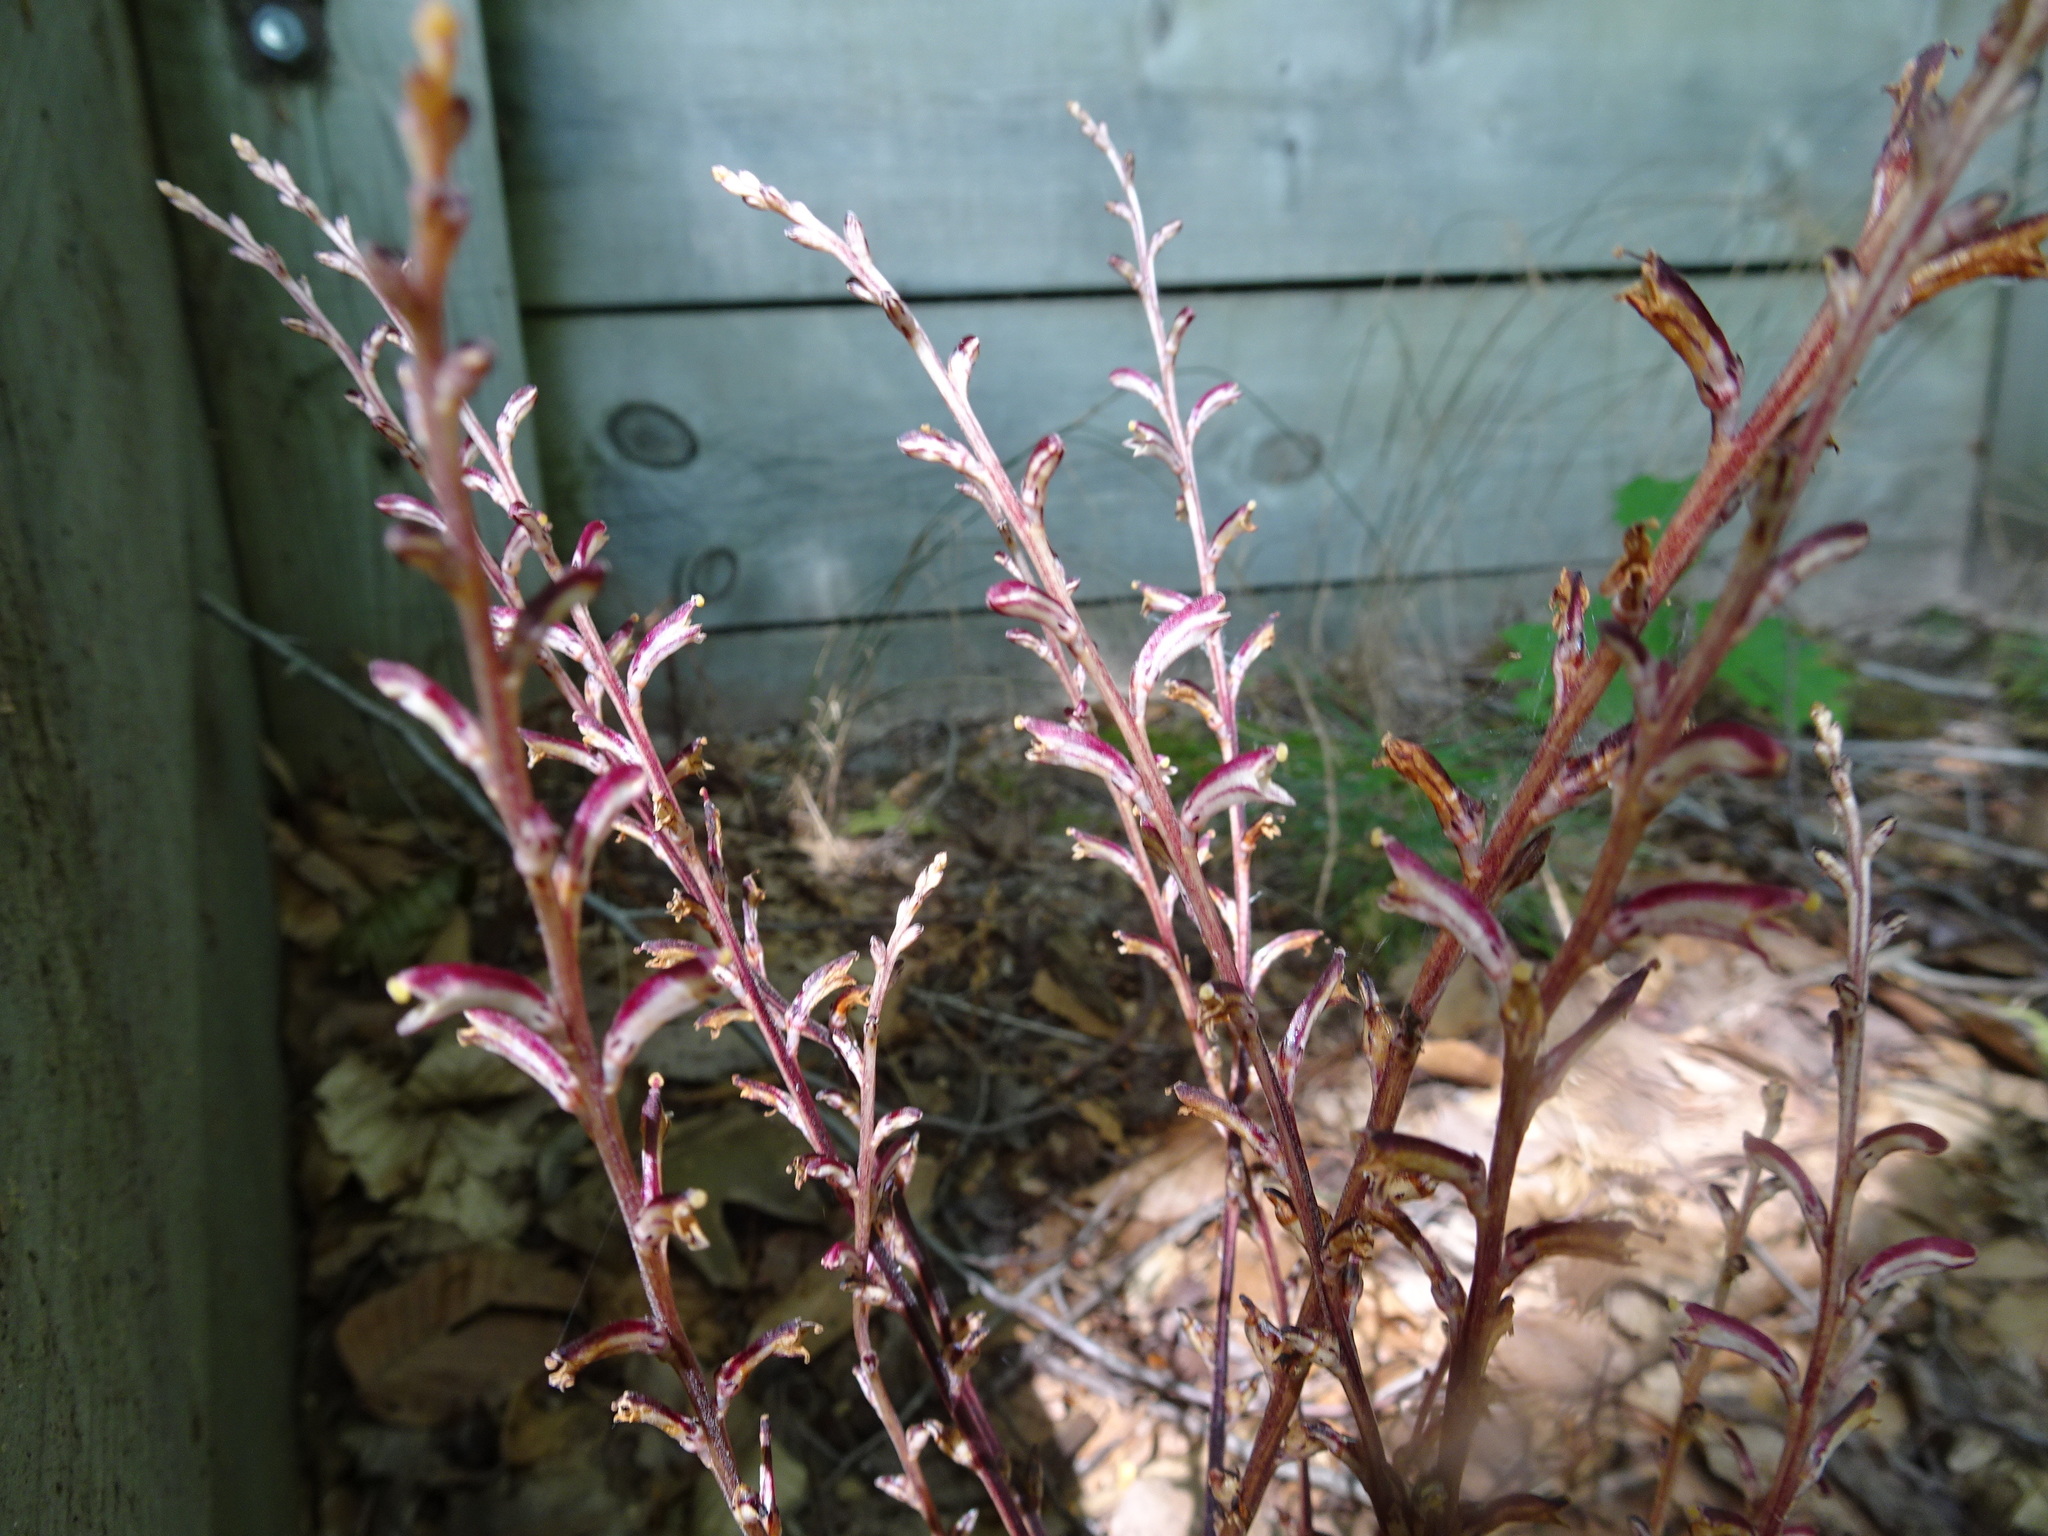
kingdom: Plantae
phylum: Tracheophyta
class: Magnoliopsida
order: Lamiales
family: Orobanchaceae
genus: Epifagus
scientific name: Epifagus virginiana
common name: Beechdrops
